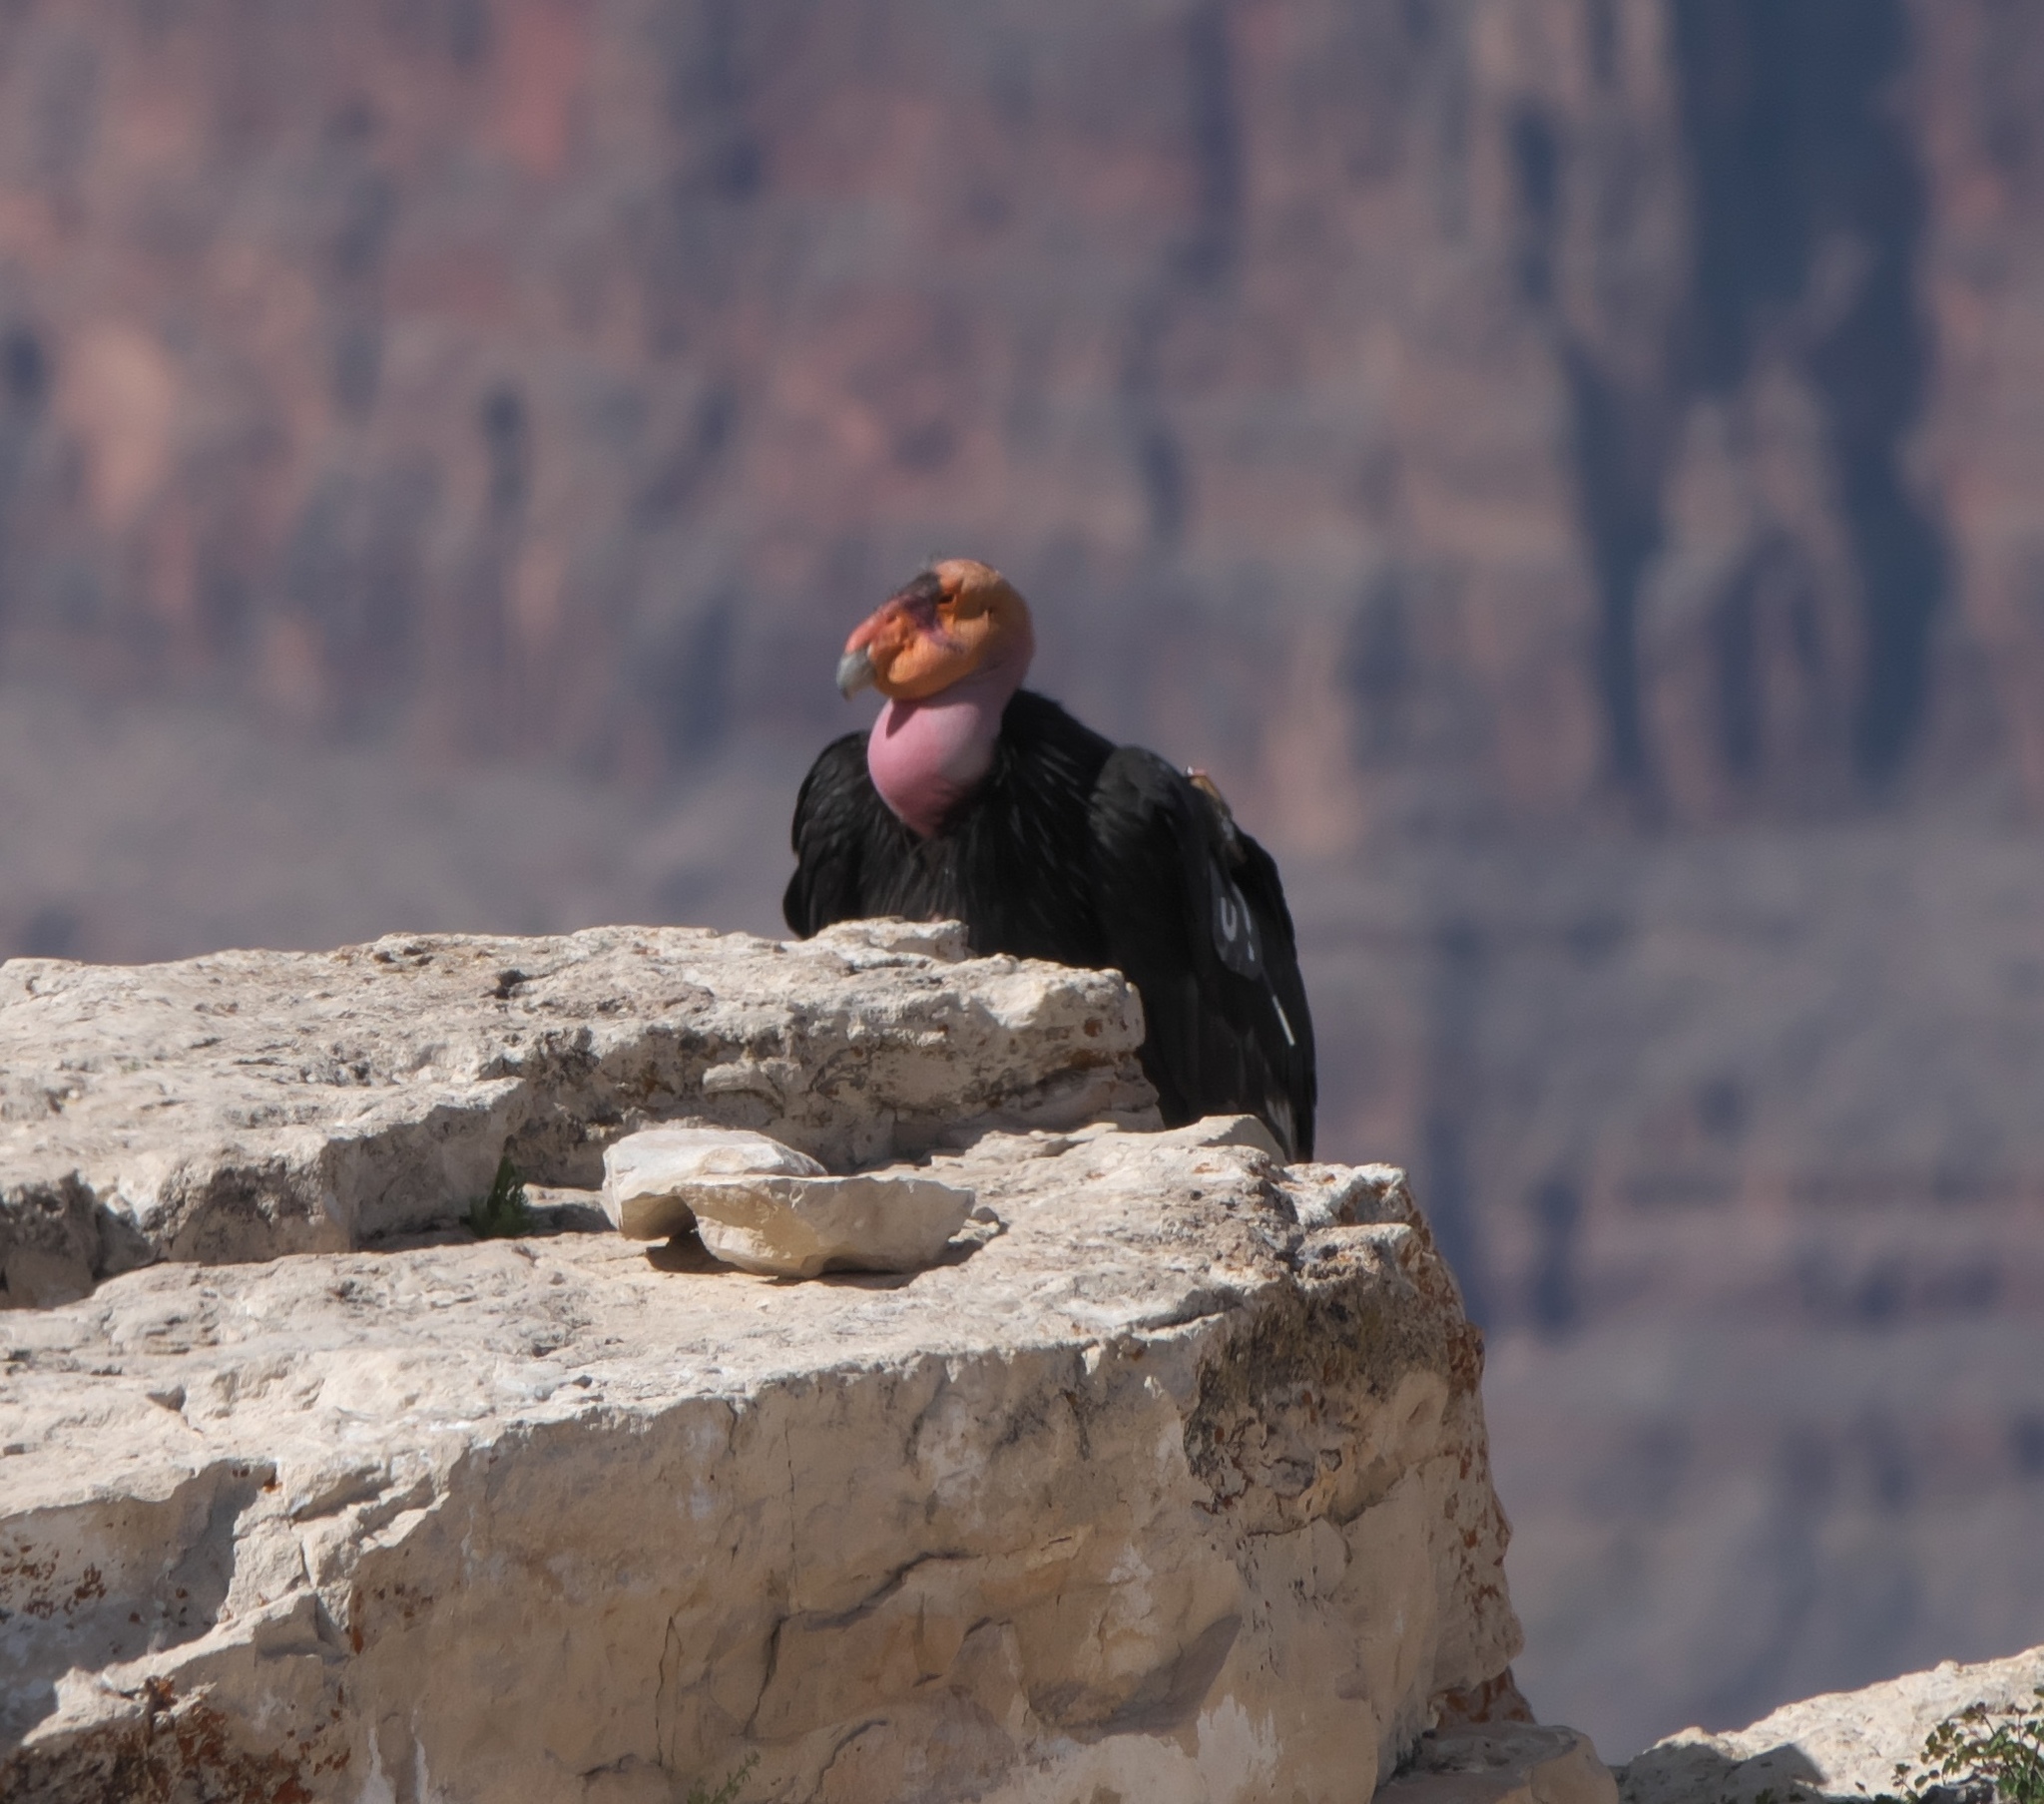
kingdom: Animalia
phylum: Chordata
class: Aves
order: Accipitriformes
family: Cathartidae
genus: Gymnogyps
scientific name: Gymnogyps californianus
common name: California condor
